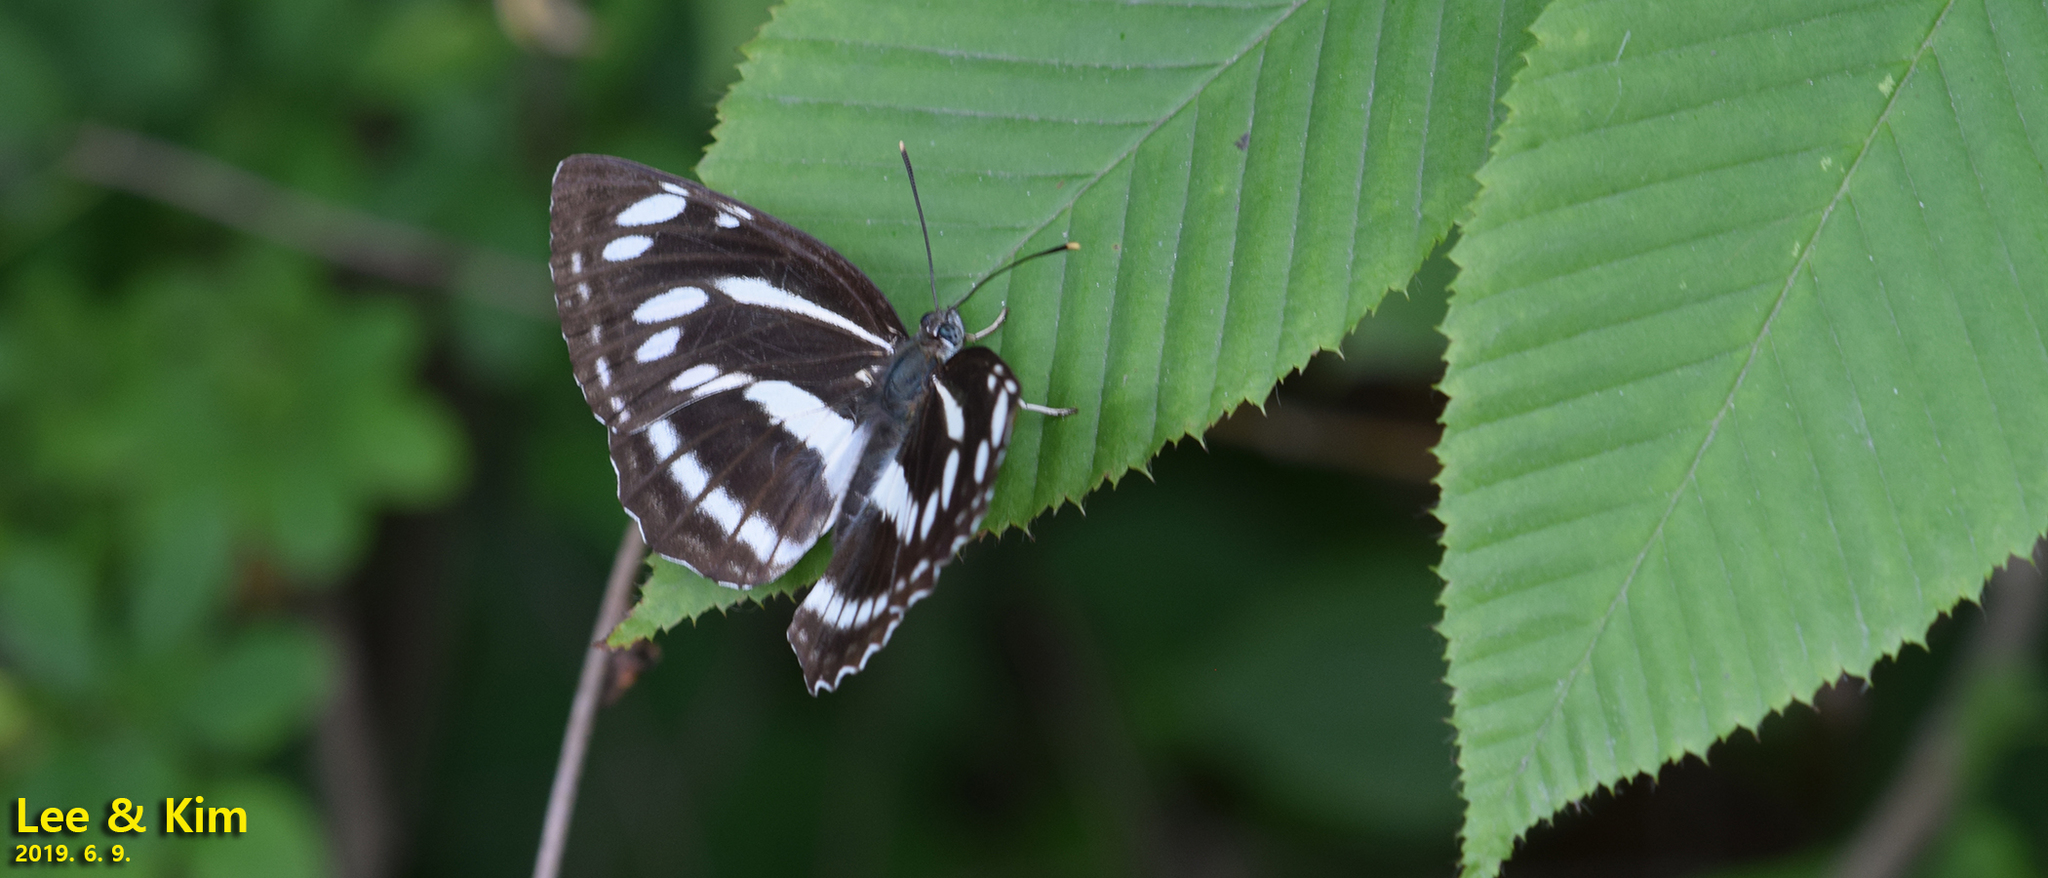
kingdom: Animalia
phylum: Arthropoda
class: Insecta
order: Lepidoptera
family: Nymphalidae
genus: Neptis
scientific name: Neptis philyroides
